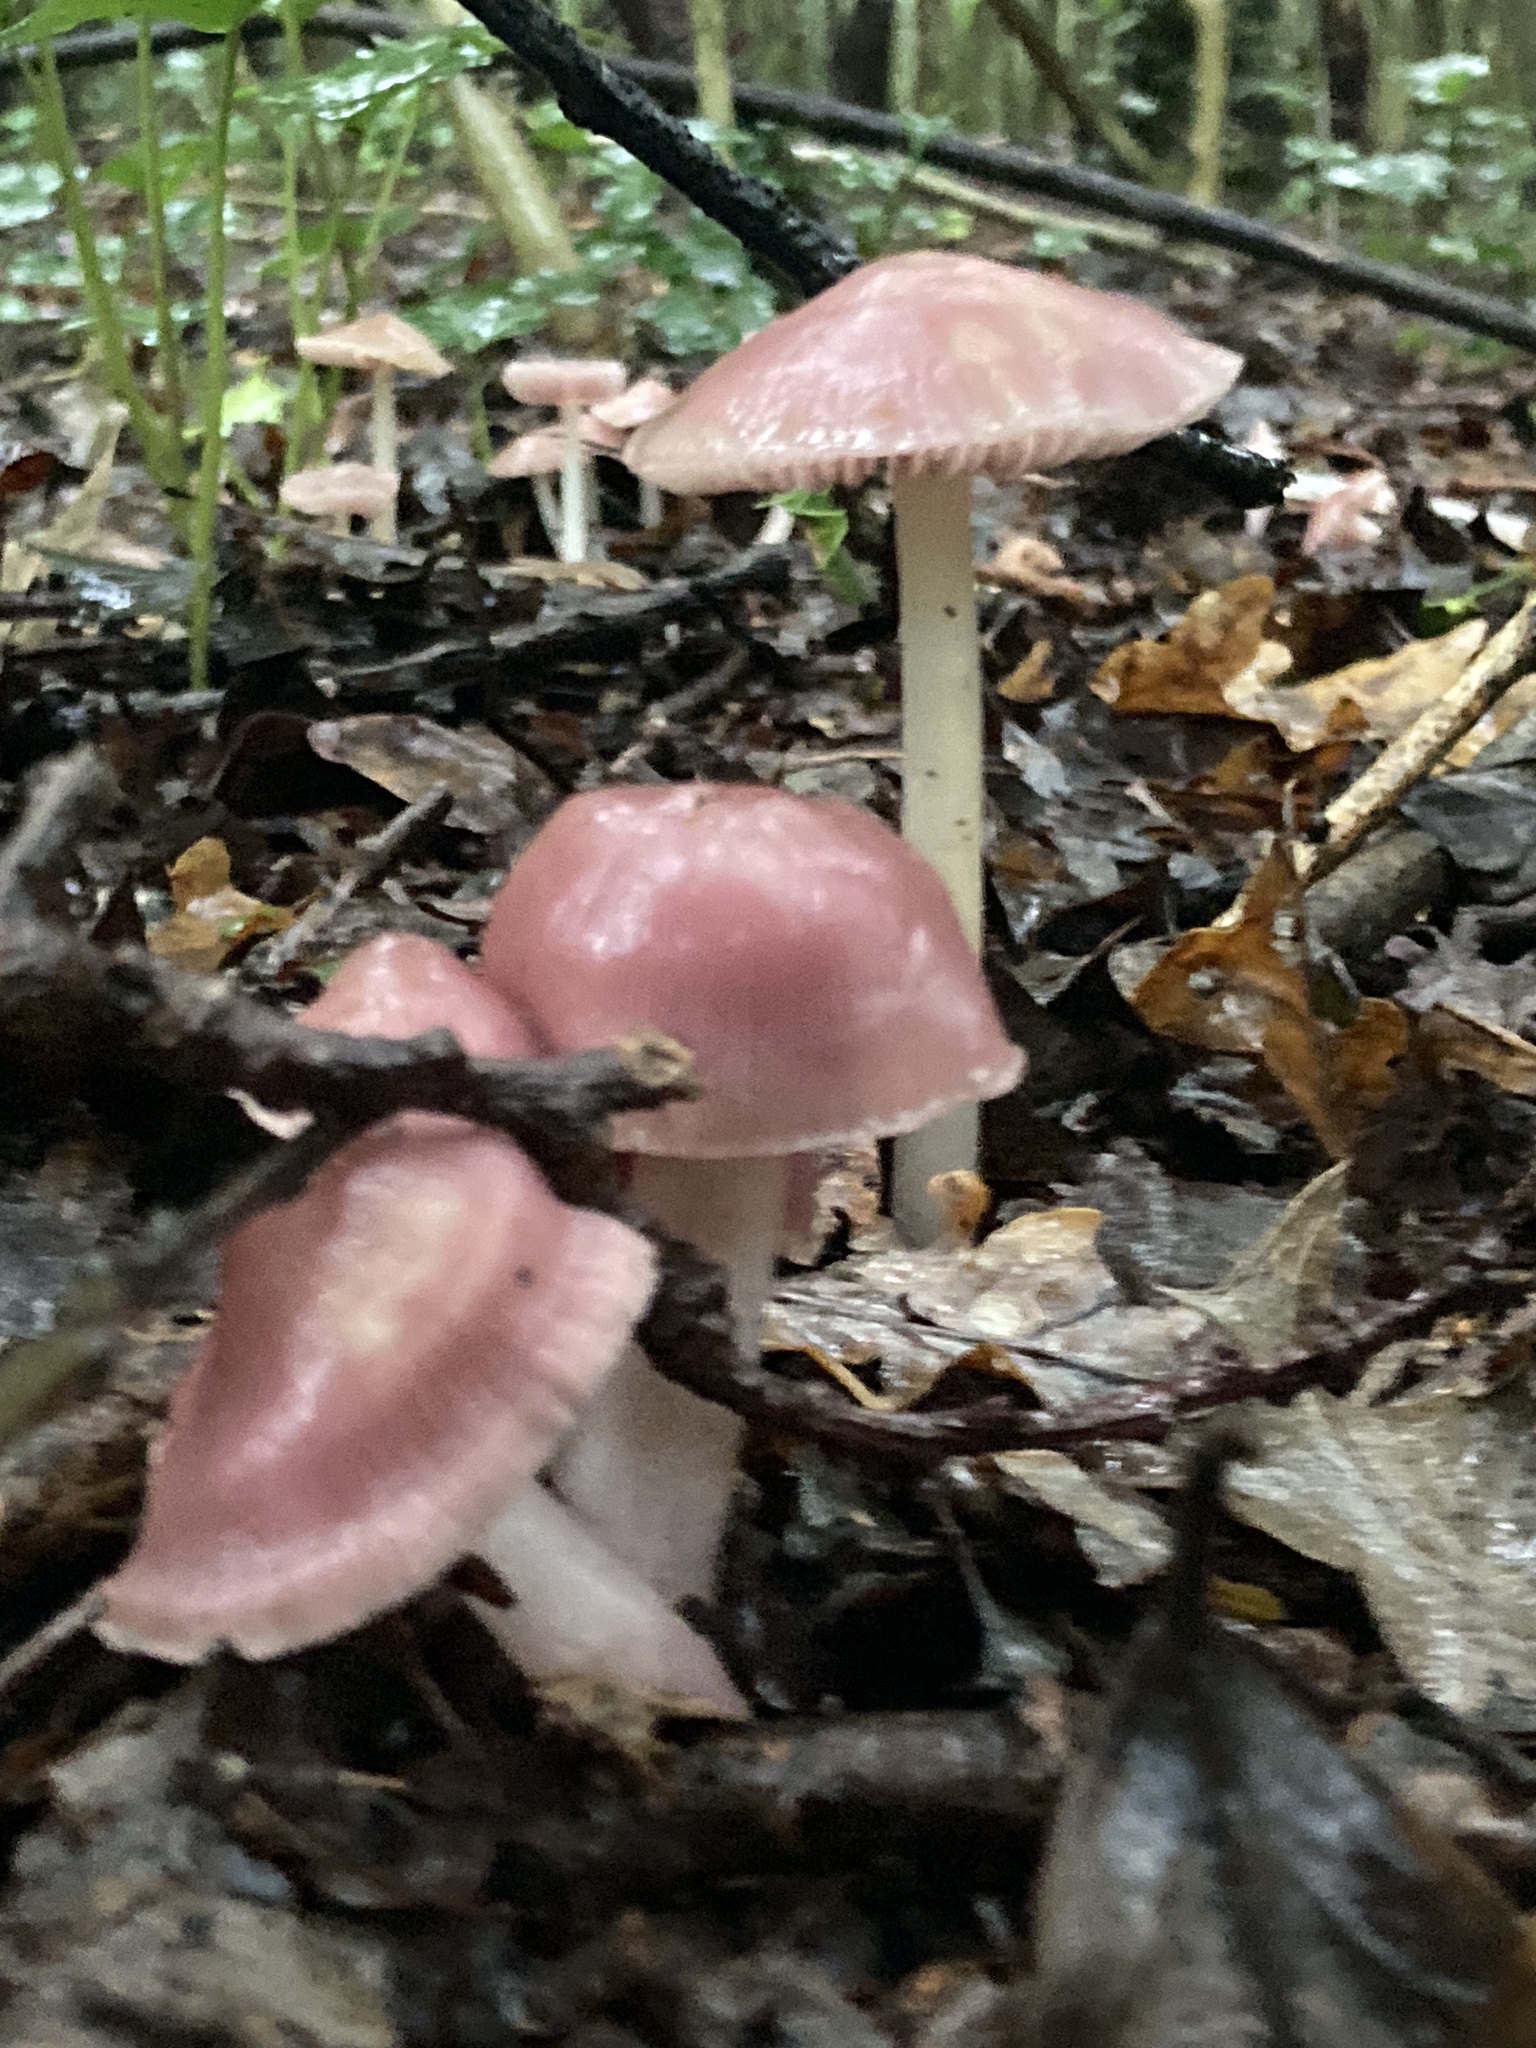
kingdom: Fungi
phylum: Basidiomycota
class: Agaricomycetes
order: Agaricales
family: Mycenaceae
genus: Mycena
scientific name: Mycena rosea
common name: Rosy bonnet
